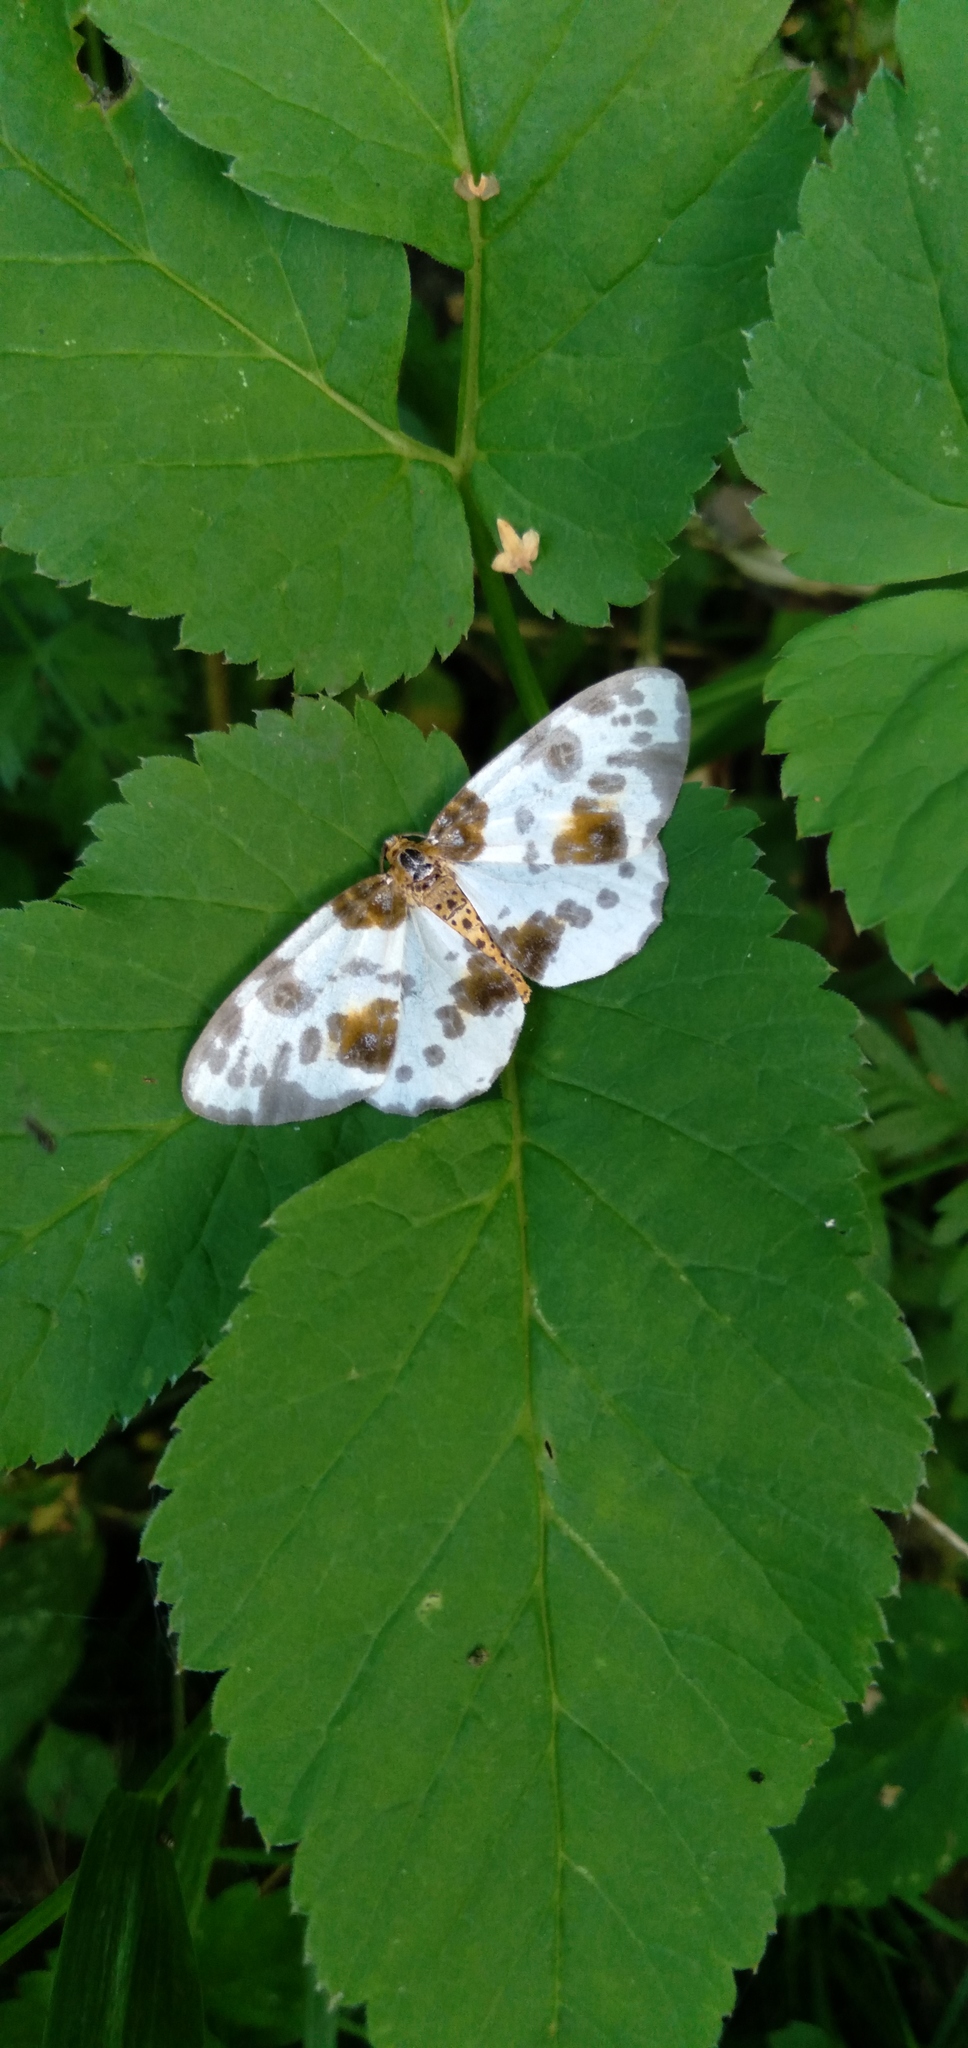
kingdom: Animalia
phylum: Arthropoda
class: Insecta
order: Lepidoptera
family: Geometridae
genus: Abraxas
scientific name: Abraxas sylvata
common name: Clouded magpie
